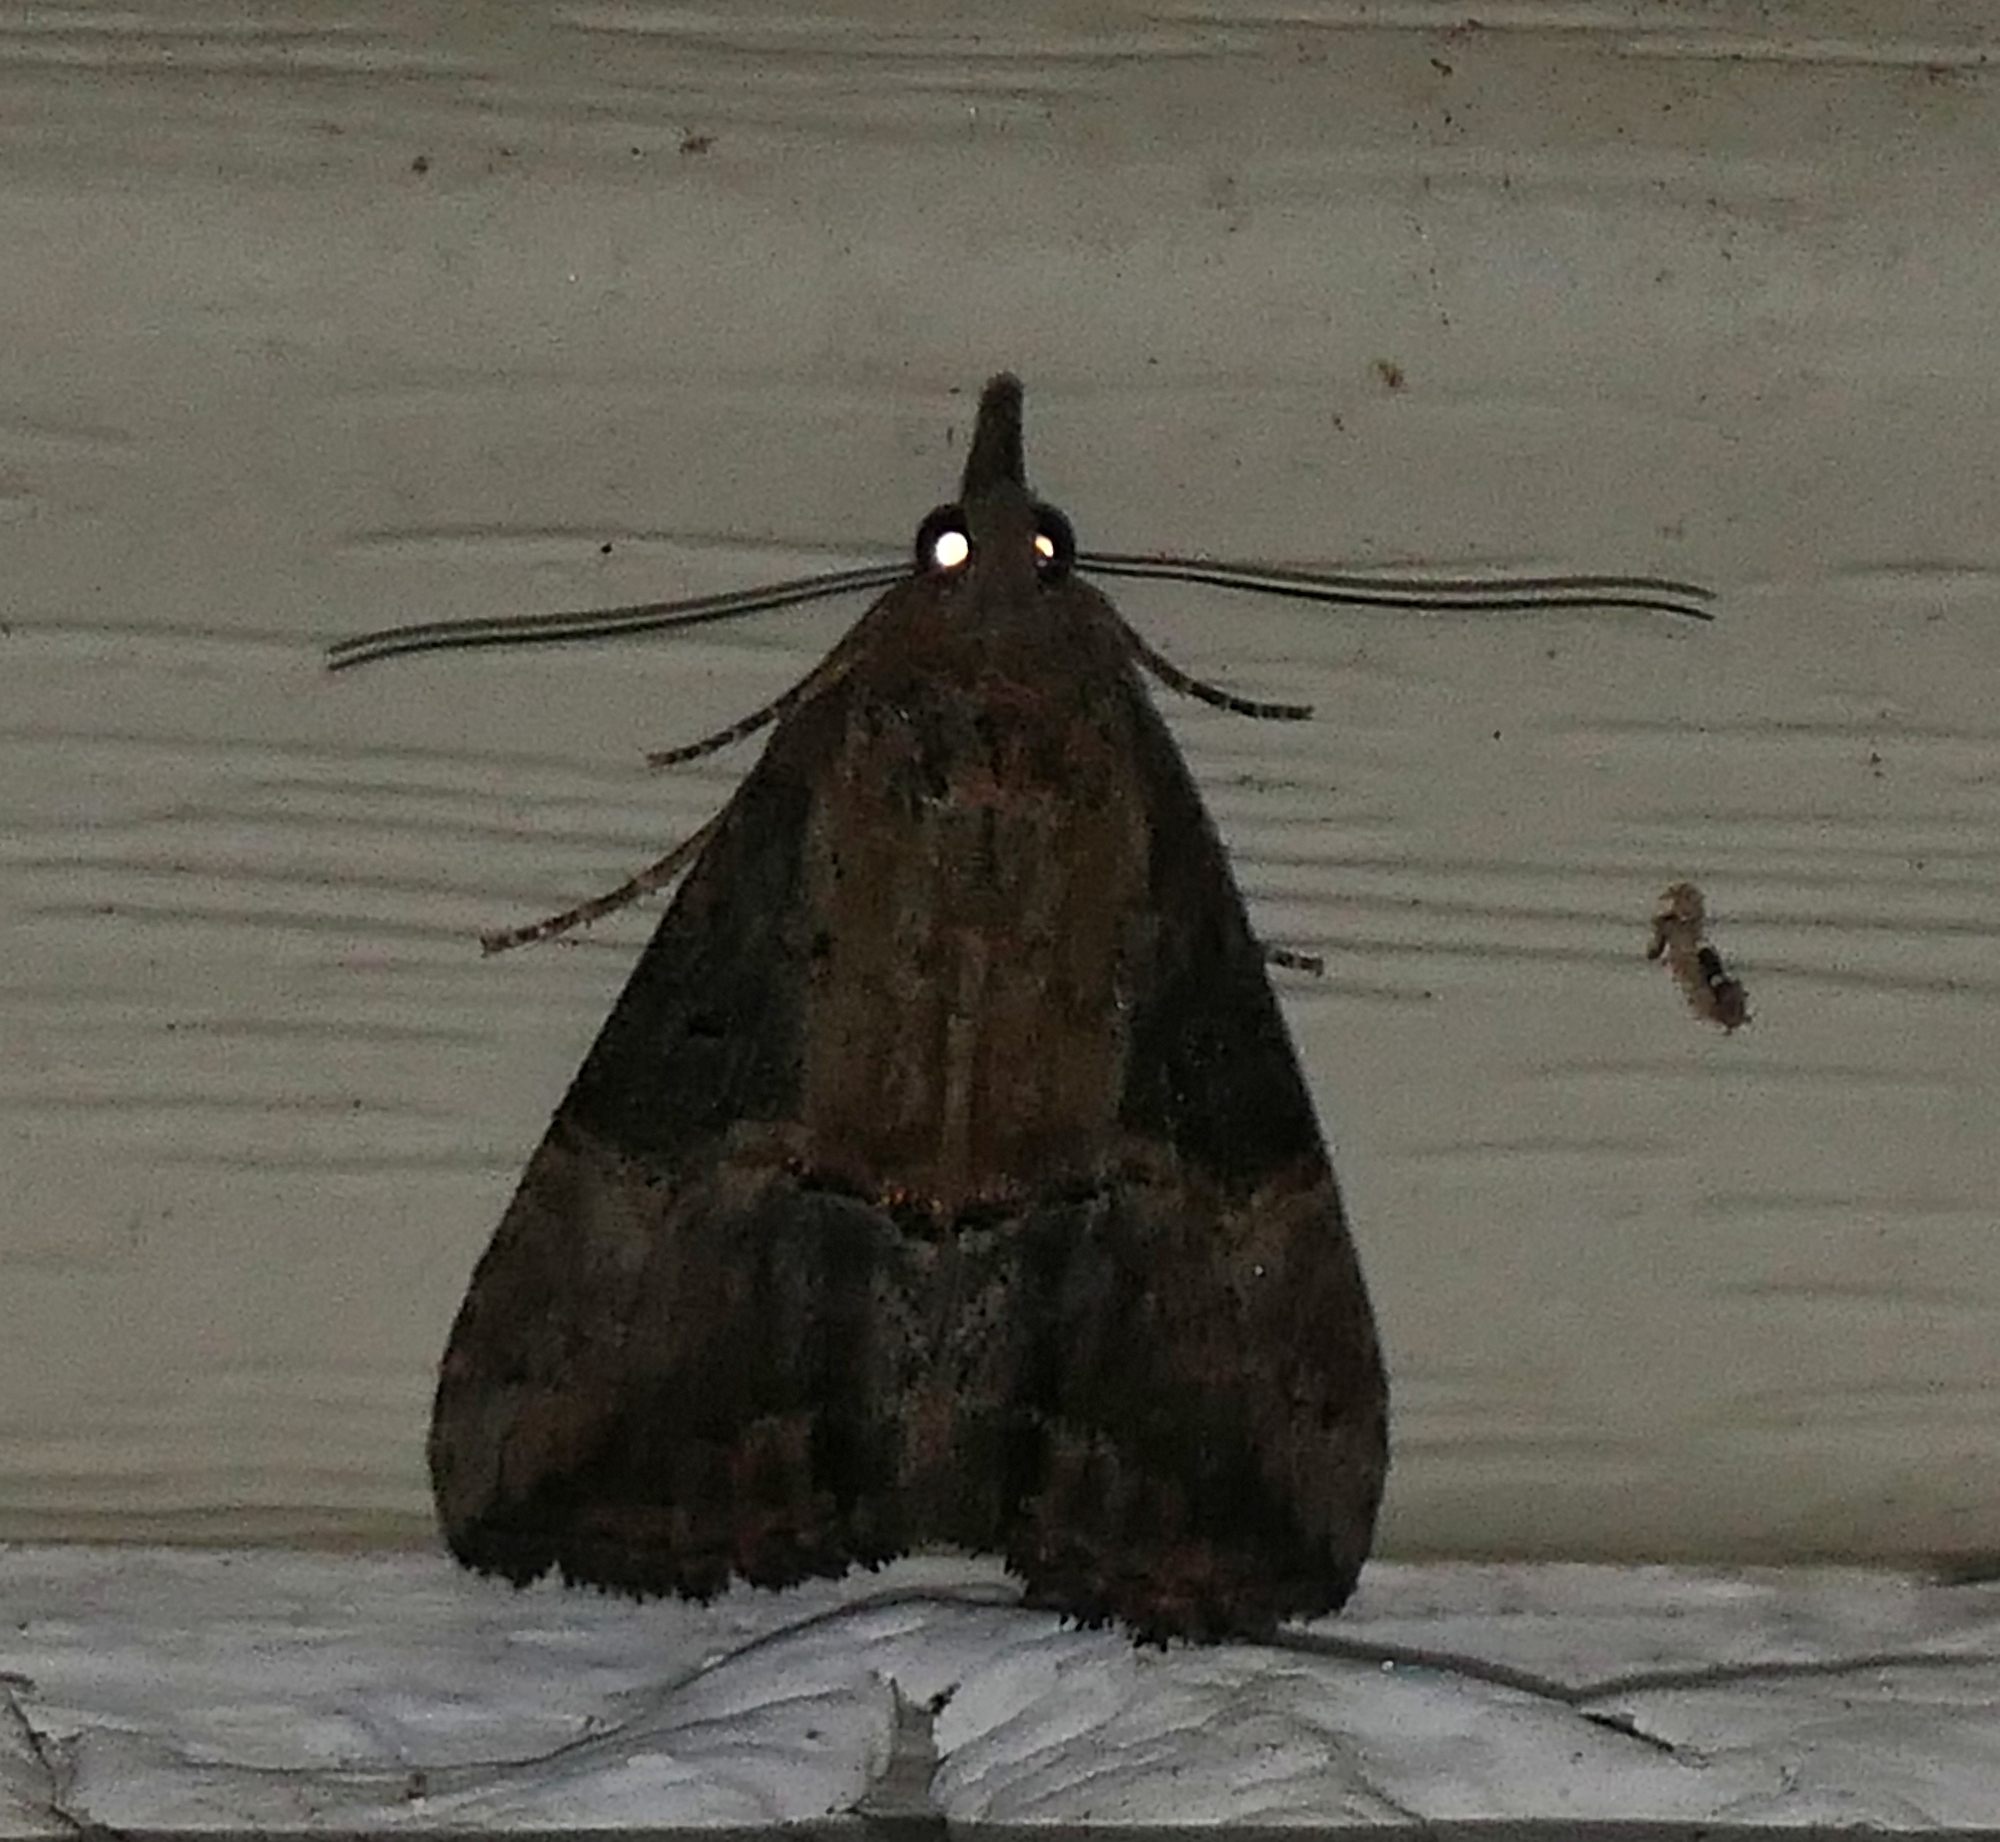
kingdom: Animalia
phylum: Arthropoda
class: Insecta
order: Lepidoptera
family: Erebidae
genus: Hypena
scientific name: Hypena scabra
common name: Green cloverworm
